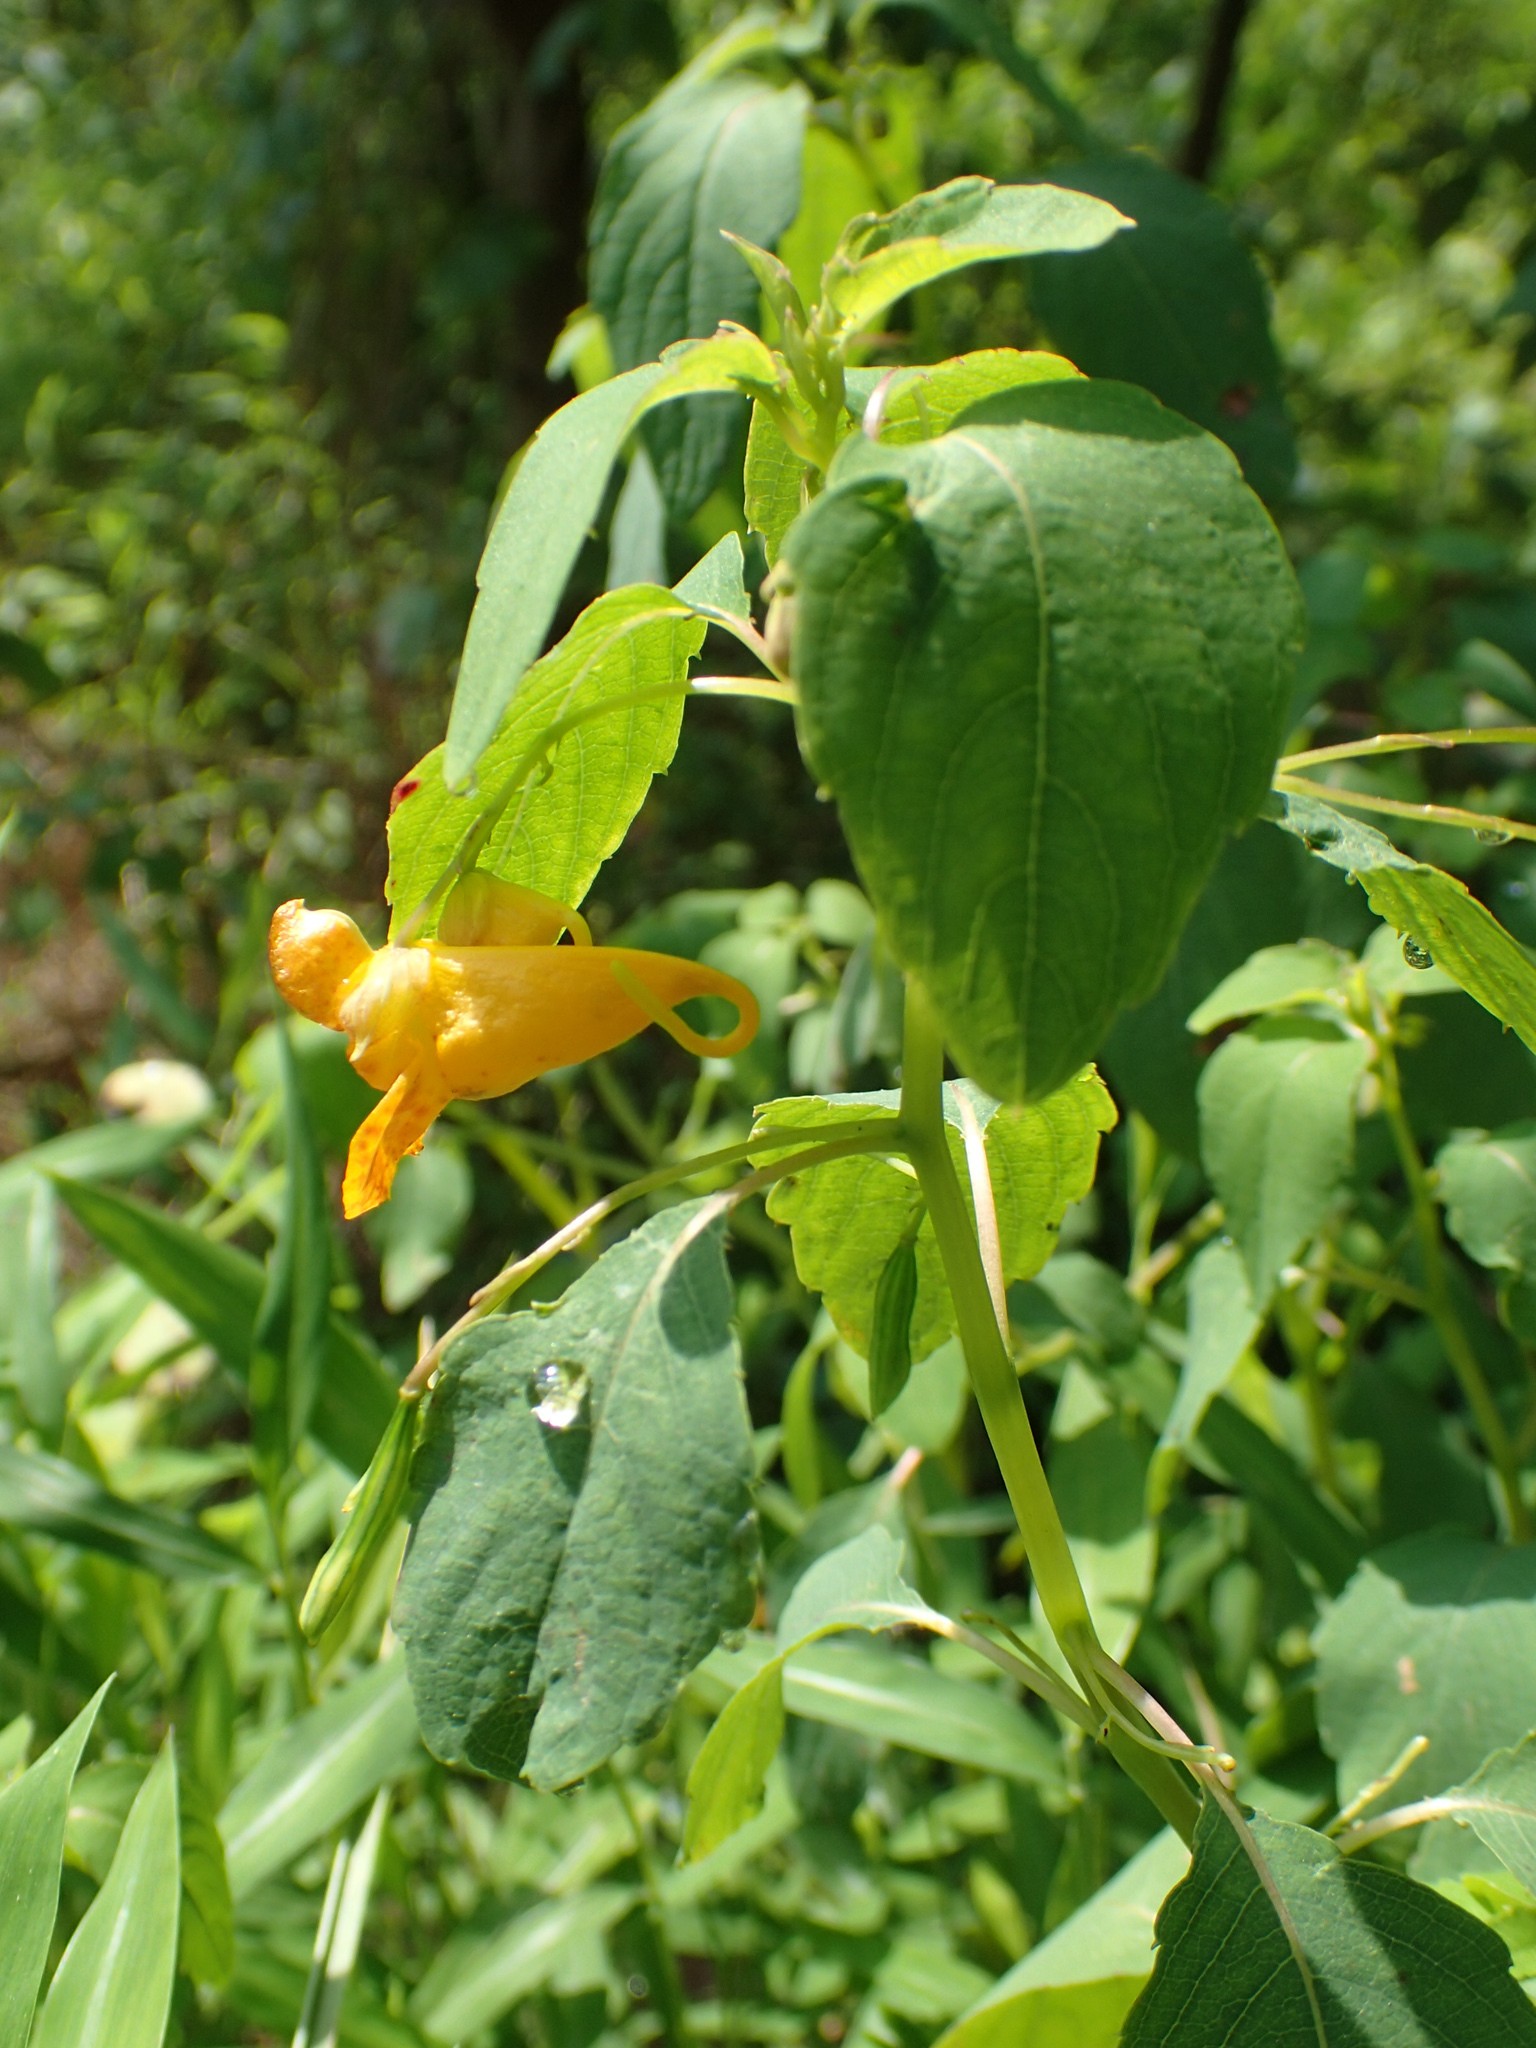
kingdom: Plantae
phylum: Tracheophyta
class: Magnoliopsida
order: Ericales
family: Balsaminaceae
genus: Impatiens
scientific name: Impatiens capensis
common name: Orange balsam
